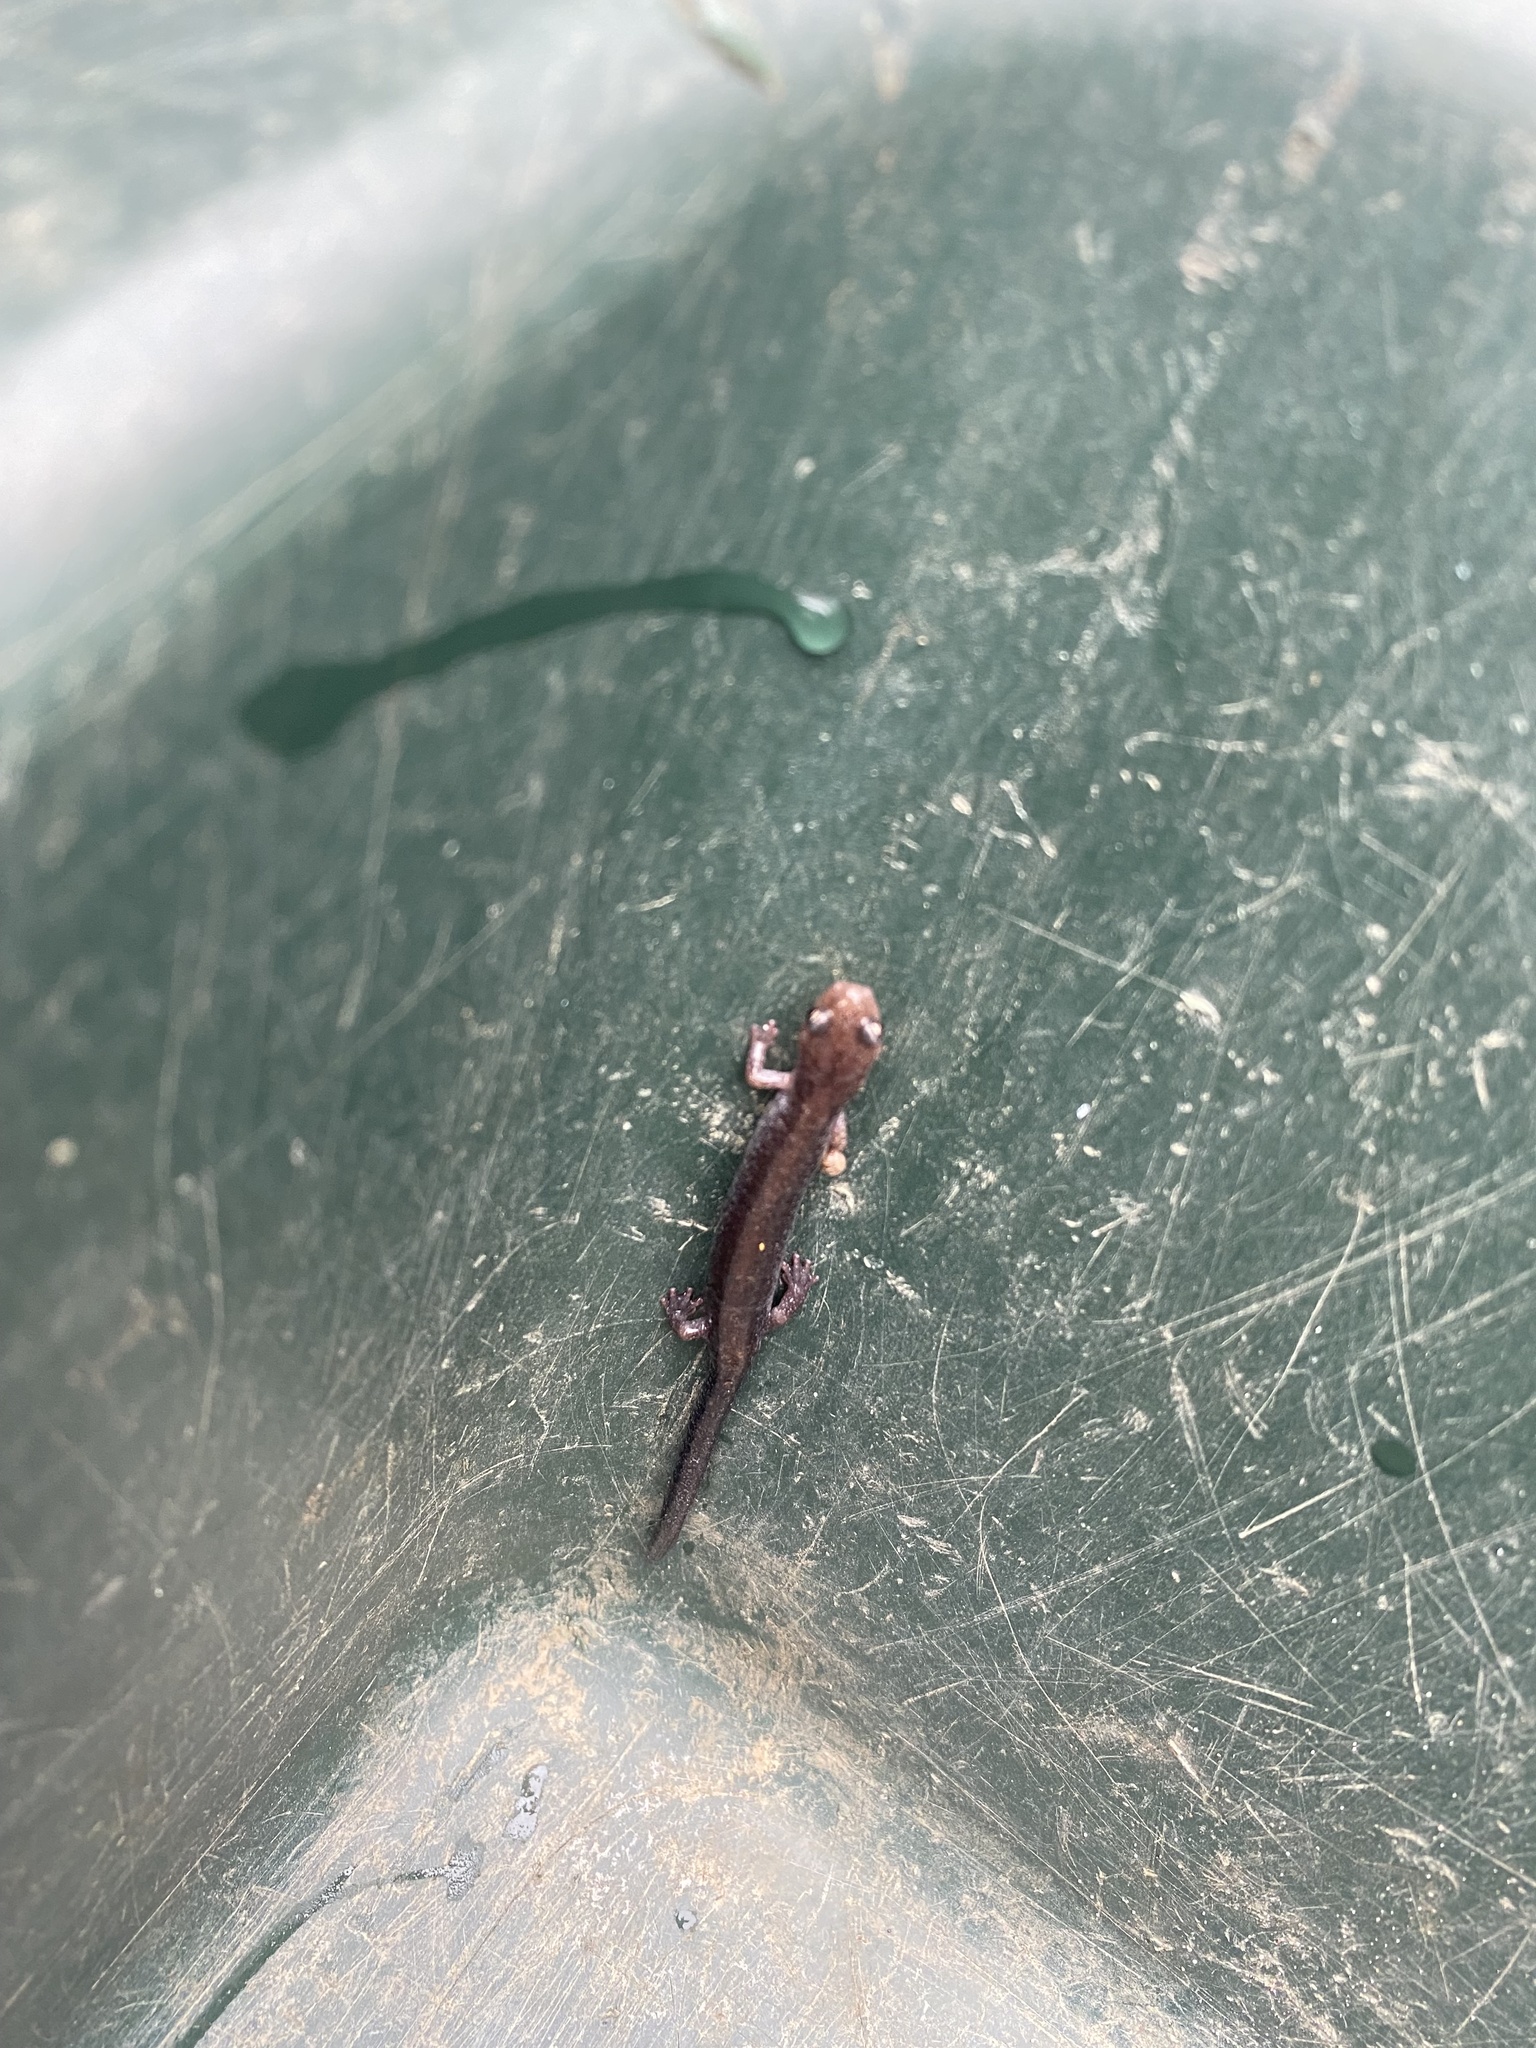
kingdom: Animalia
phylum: Chordata
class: Amphibia
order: Caudata
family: Plethodontidae
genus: Plethodon
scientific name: Plethodon cinereus
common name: Redback salamander
